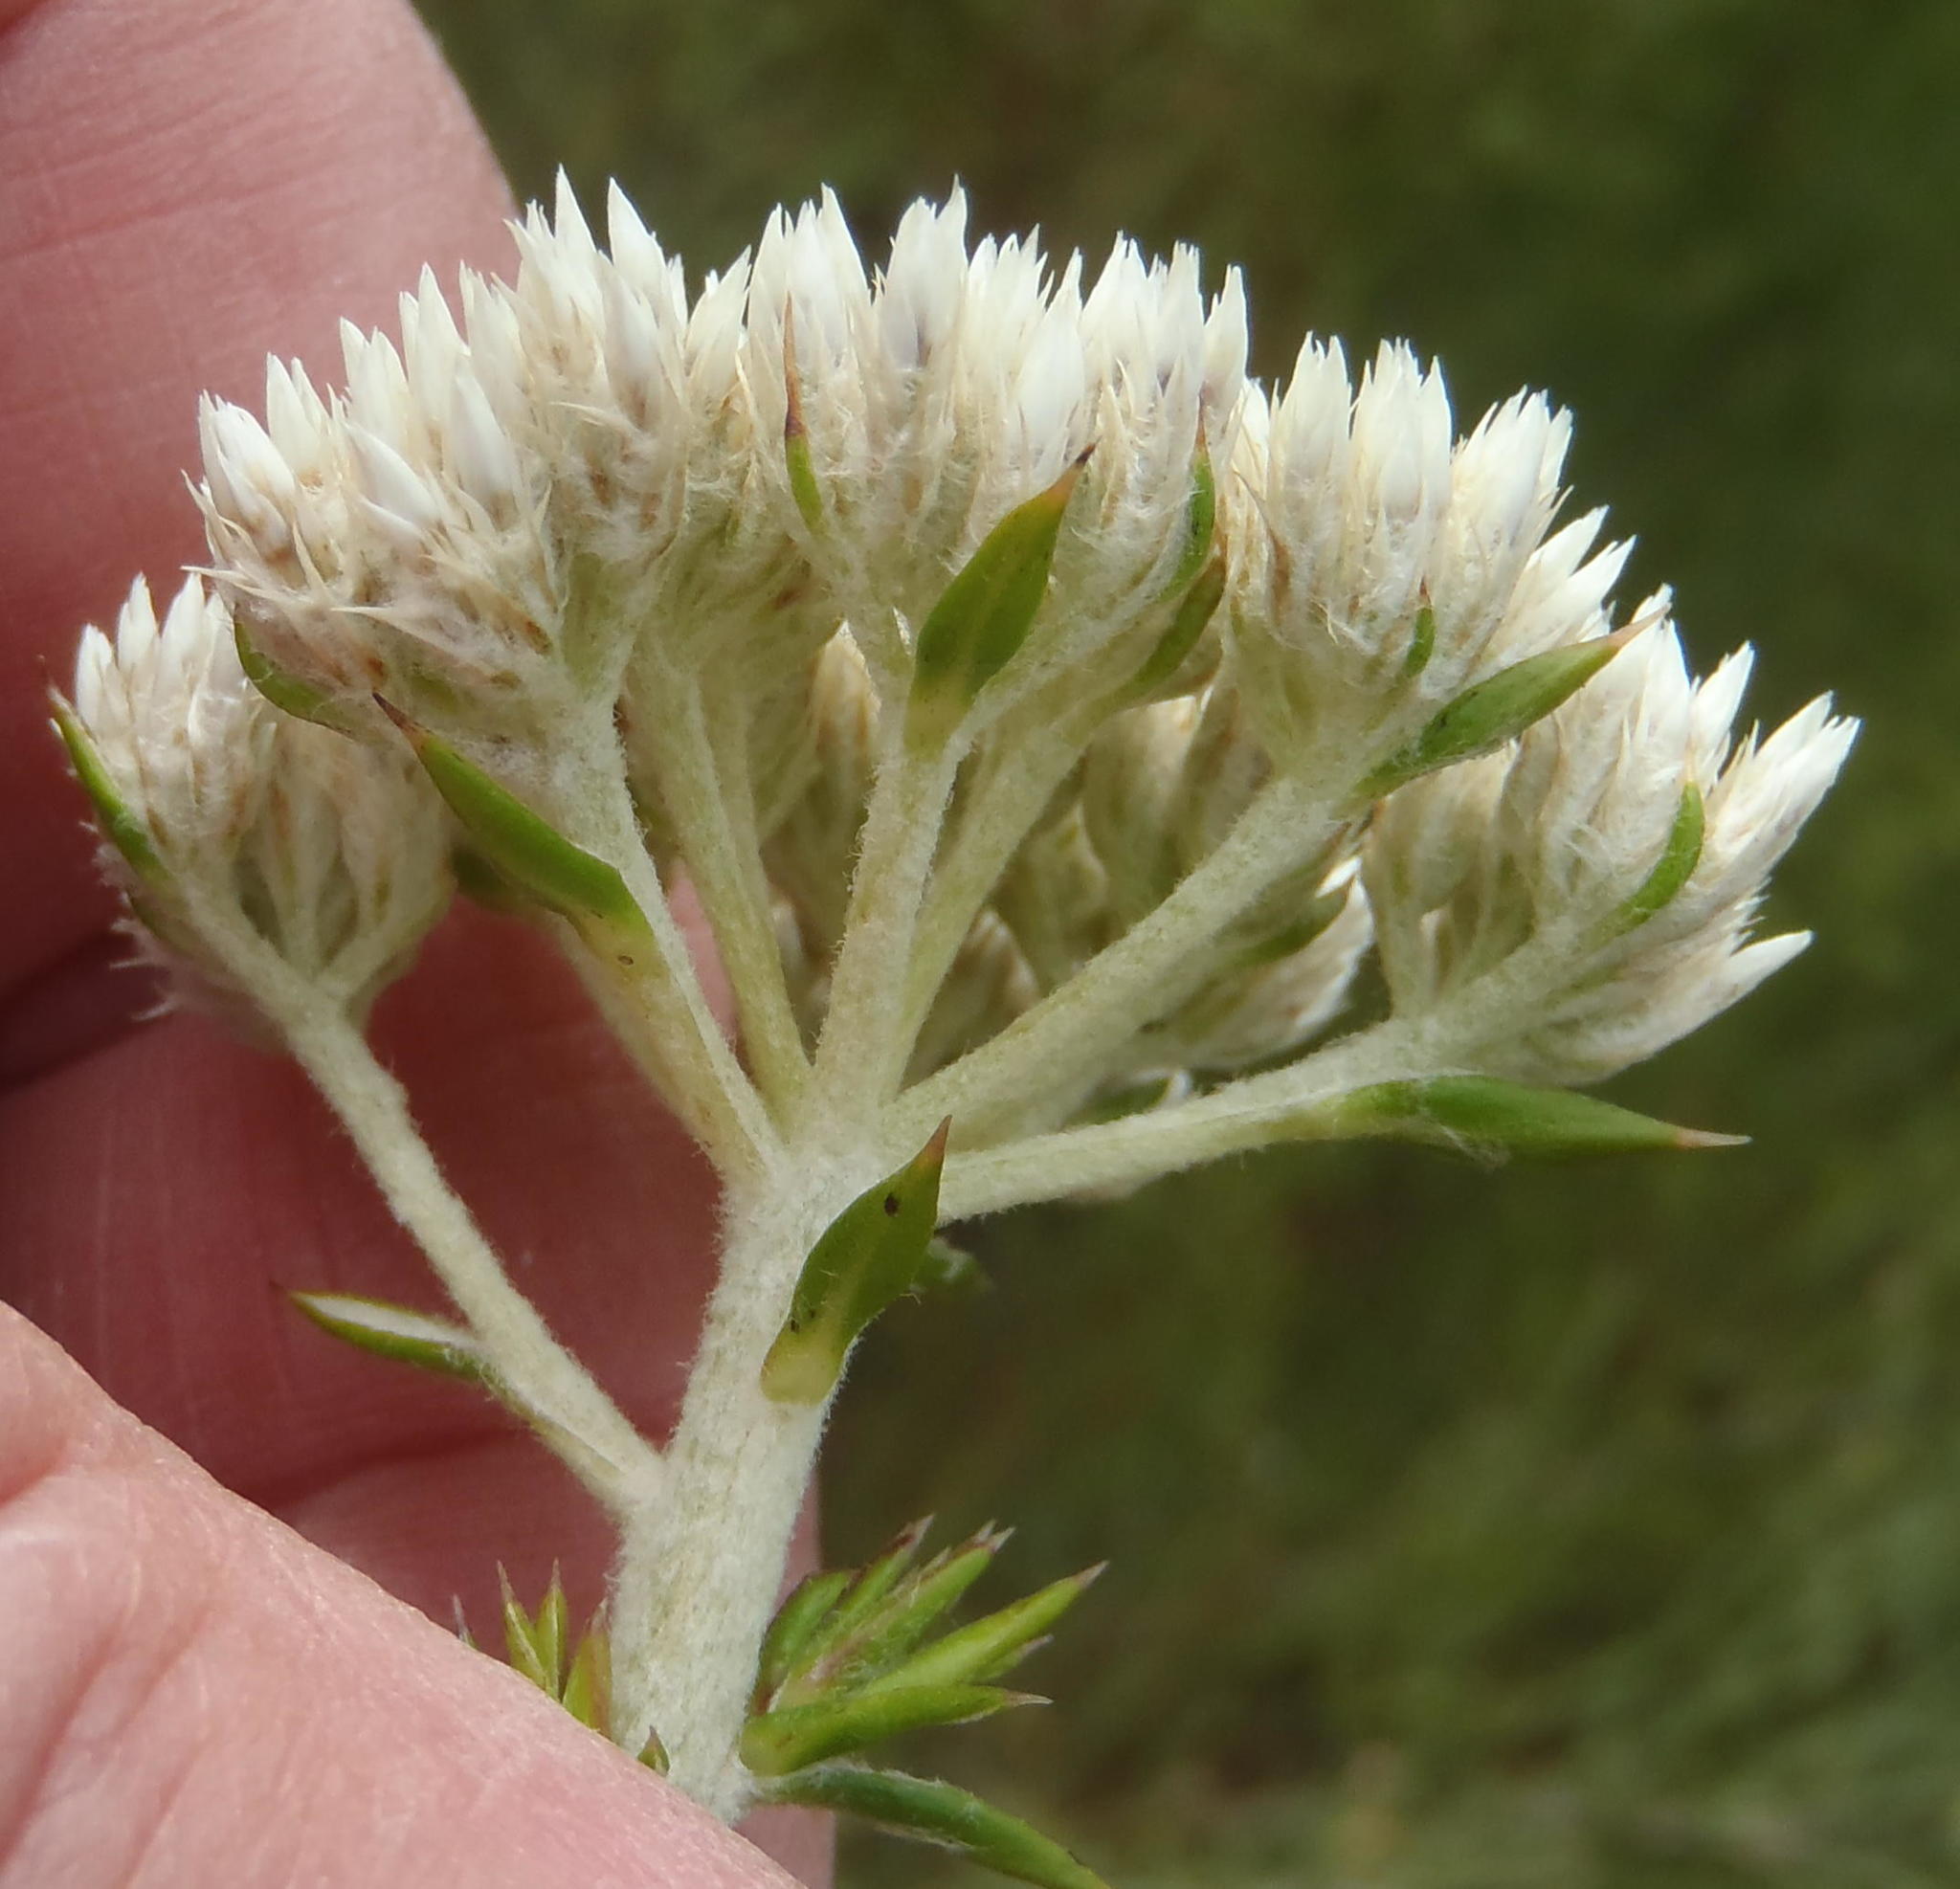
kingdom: Plantae
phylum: Tracheophyta
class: Magnoliopsida
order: Asterales
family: Asteraceae
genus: Metalasia
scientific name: Metalasia acuta
